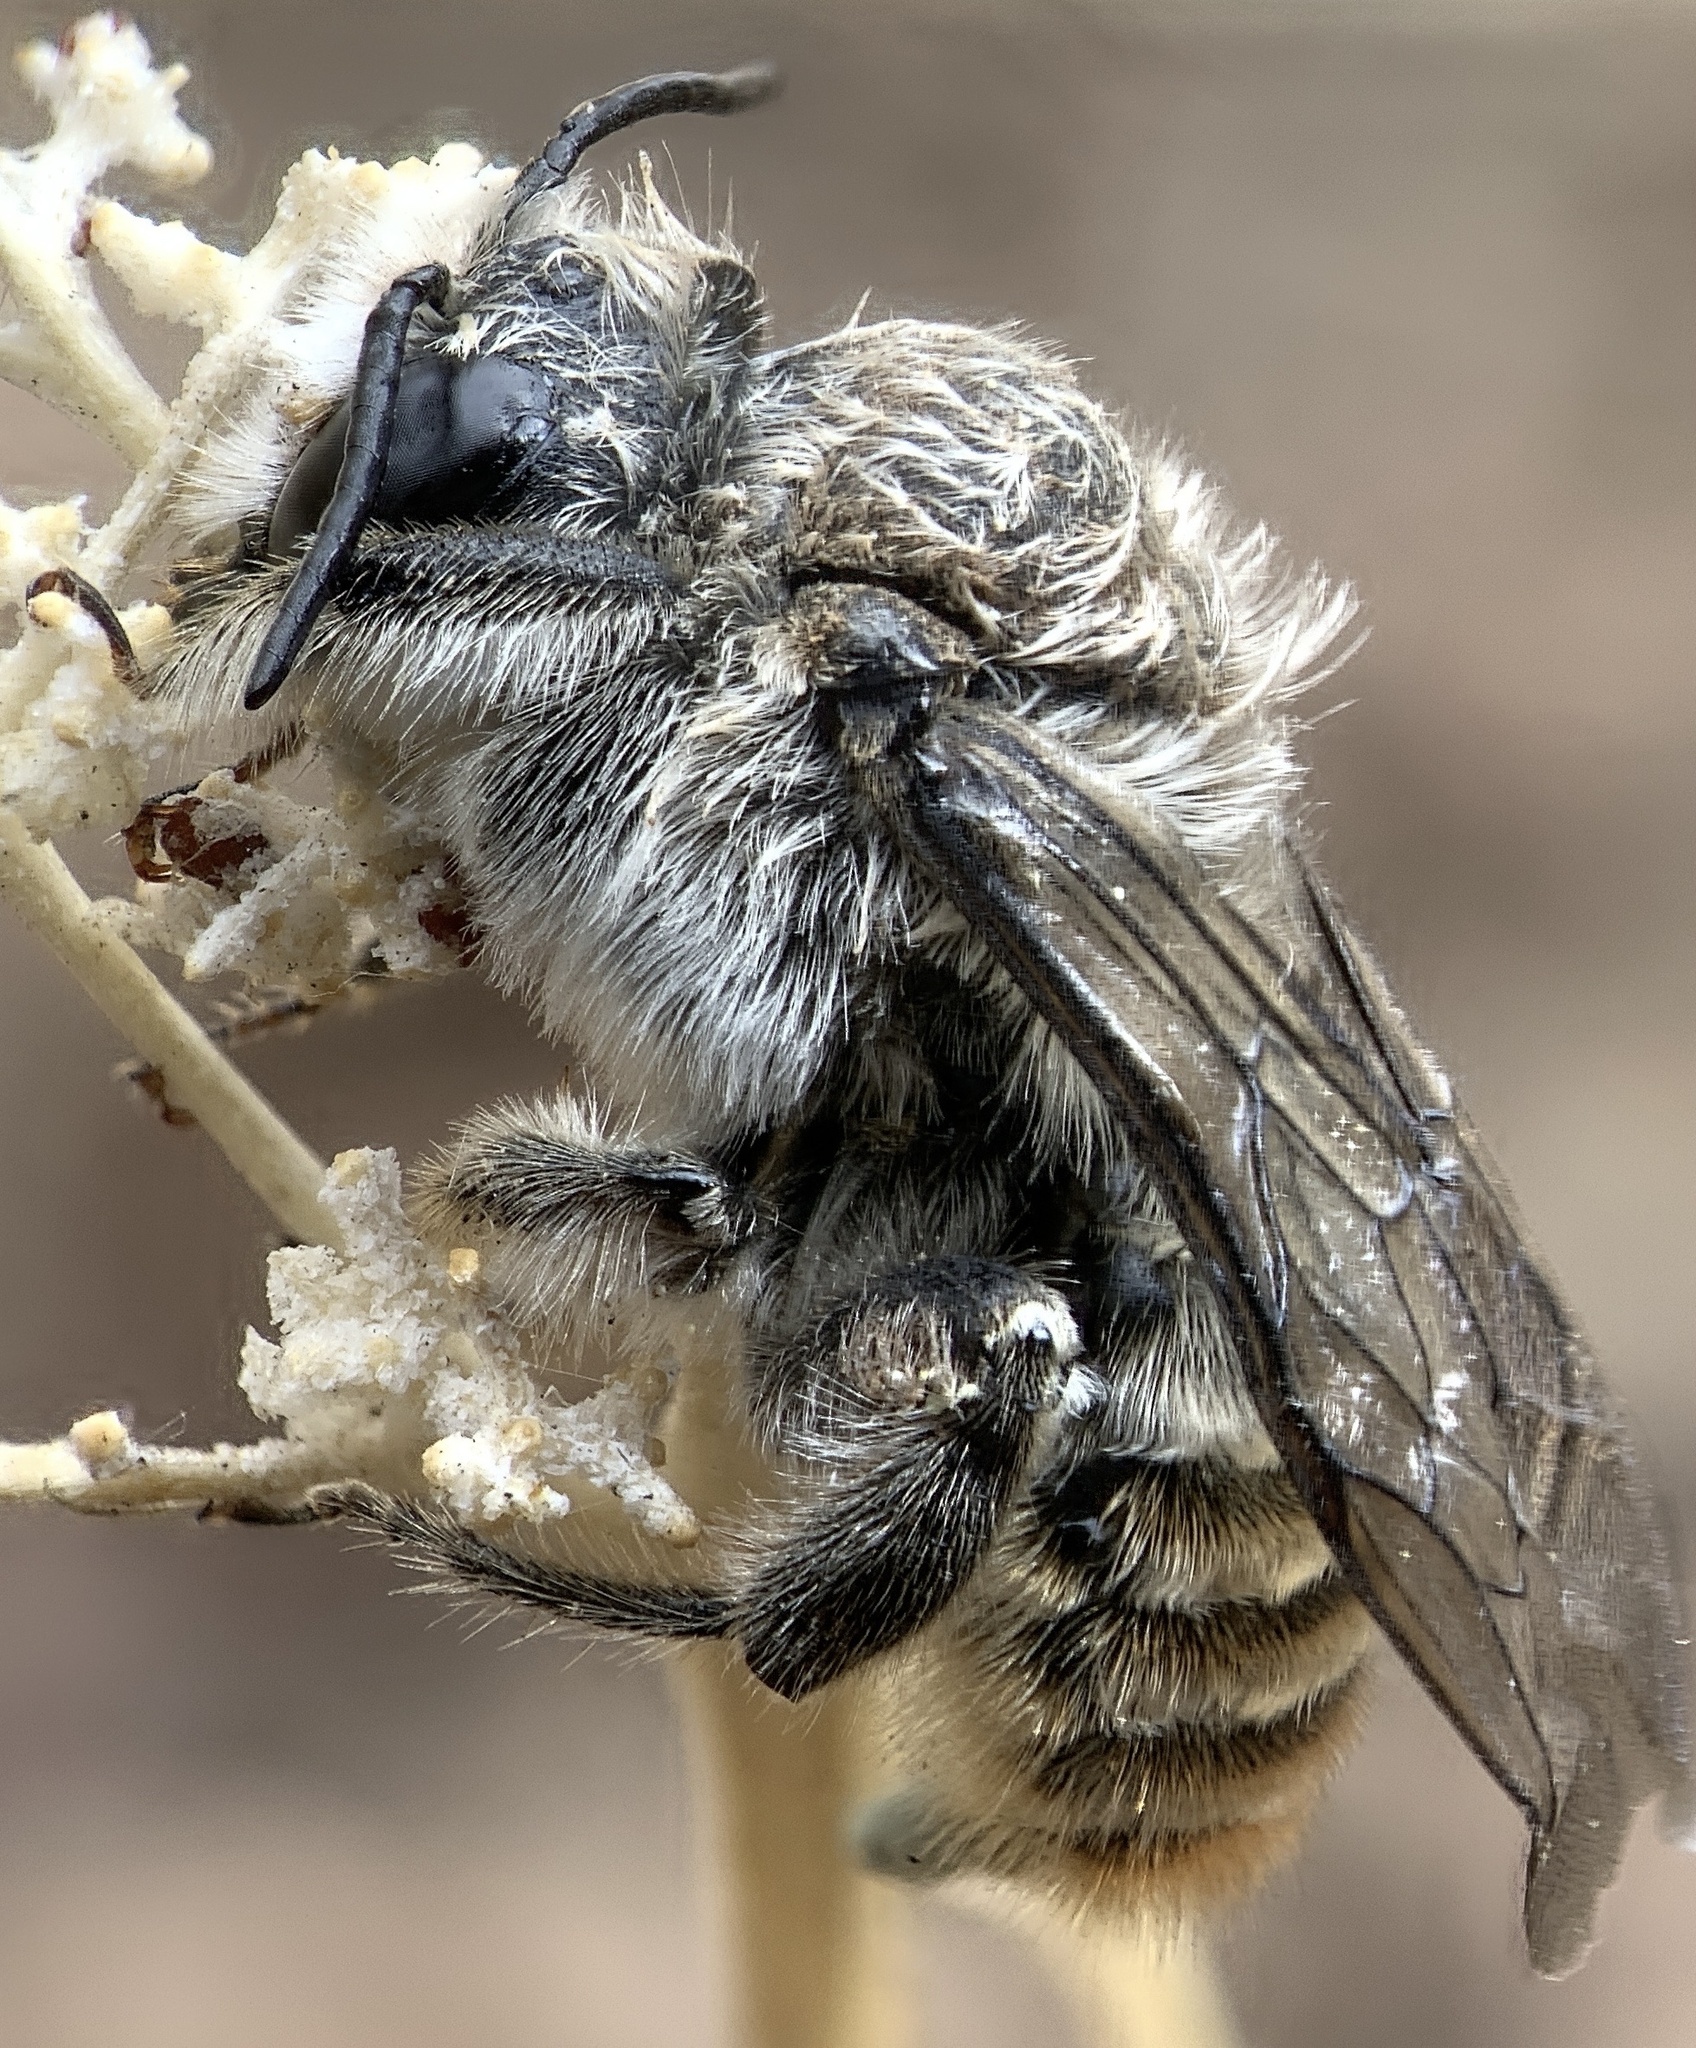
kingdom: Animalia
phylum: Arthropoda
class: Insecta
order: Hymenoptera
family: Megachilidae
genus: Lithurgopsis
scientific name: Lithurgopsis apicalis
